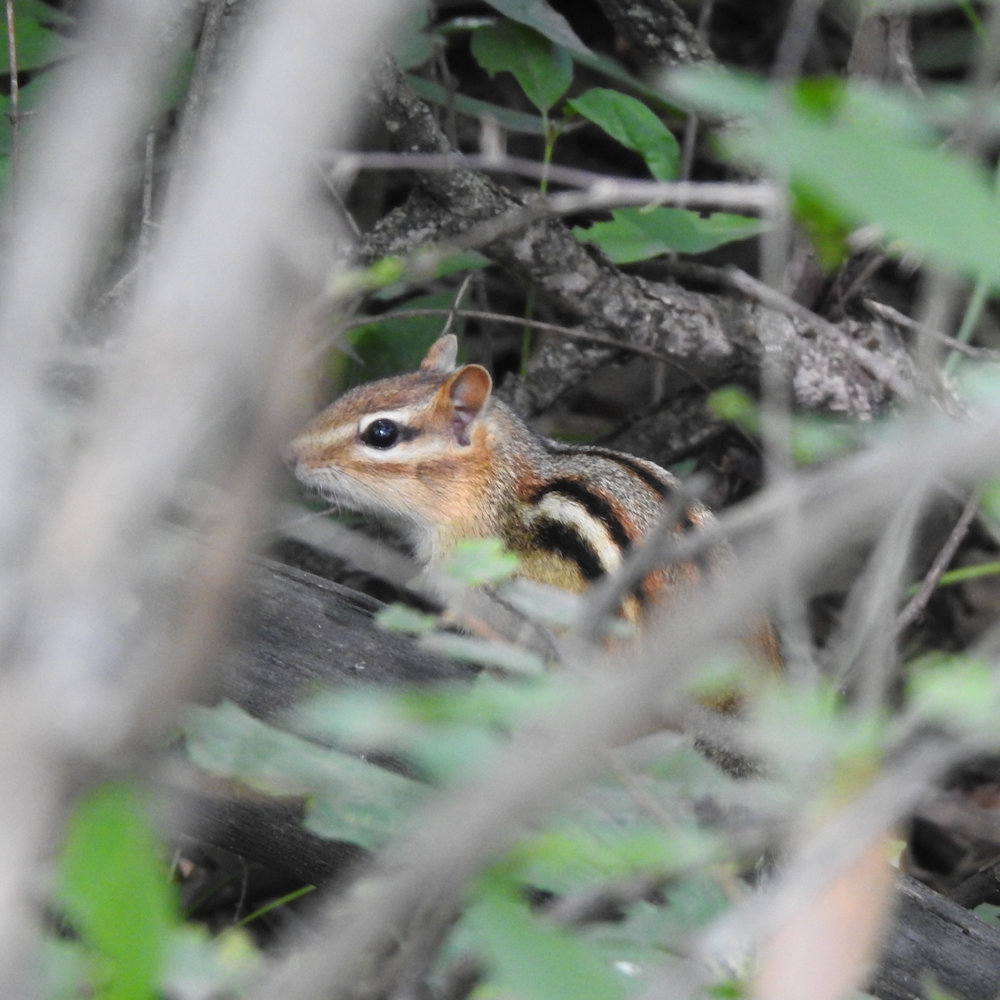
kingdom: Animalia
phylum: Chordata
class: Mammalia
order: Rodentia
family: Sciuridae
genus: Tamias
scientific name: Tamias striatus
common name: Eastern chipmunk
